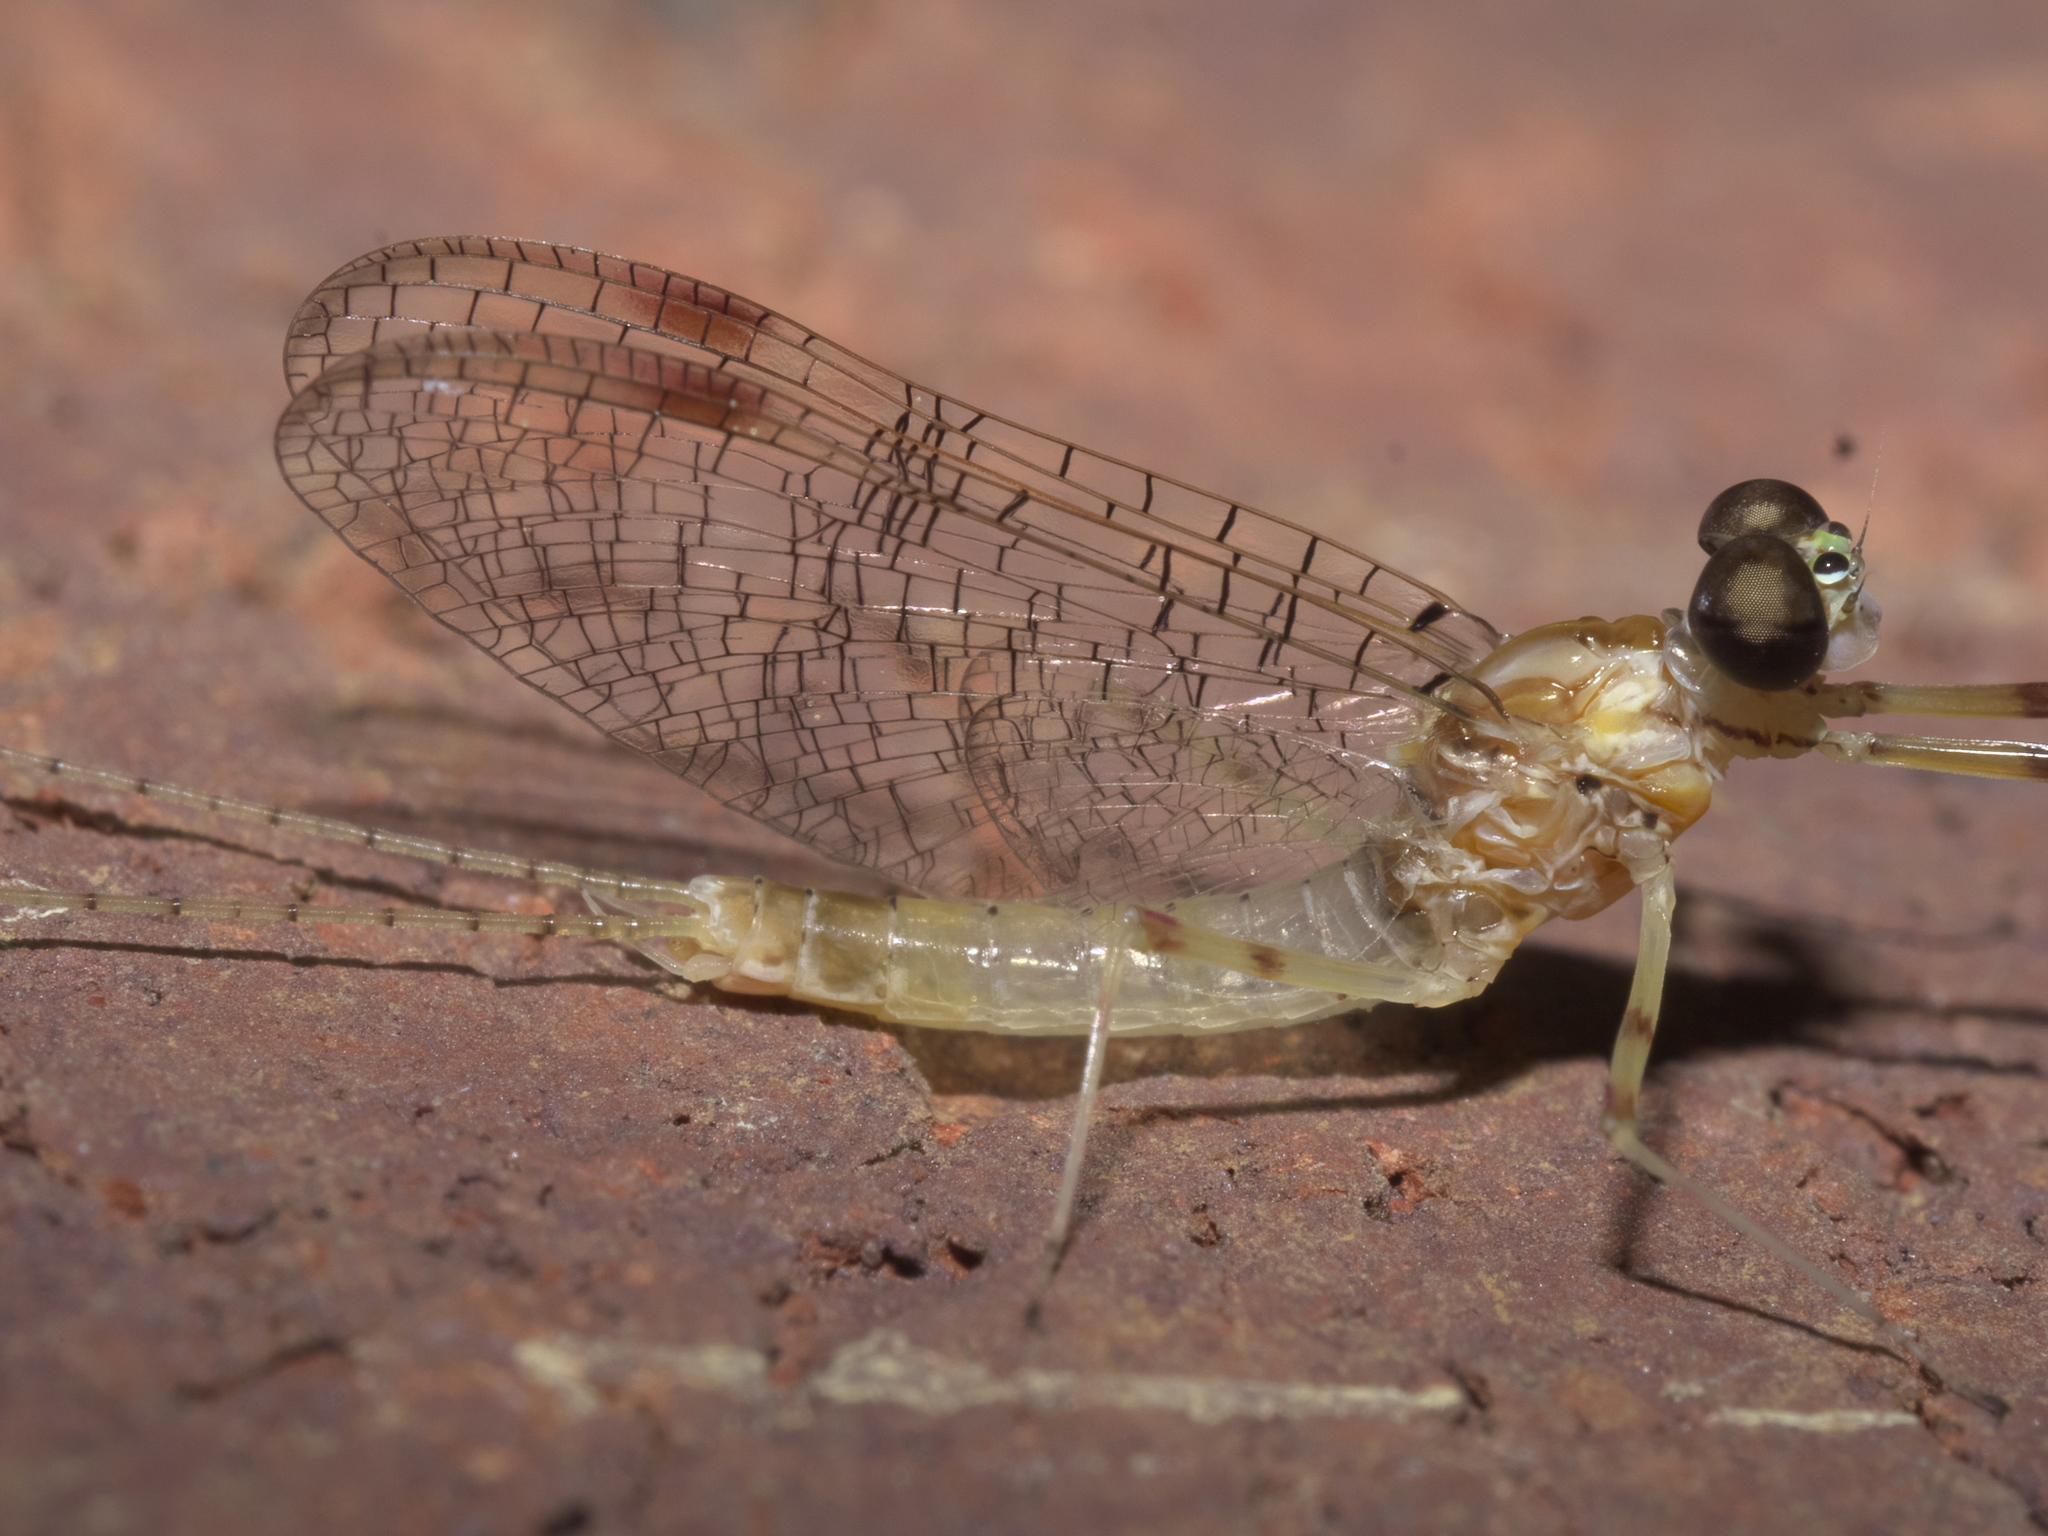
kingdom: Animalia
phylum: Arthropoda
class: Insecta
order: Ephemeroptera
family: Heptageniidae
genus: Stenonema
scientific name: Stenonema femoratum
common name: Dark cahill
